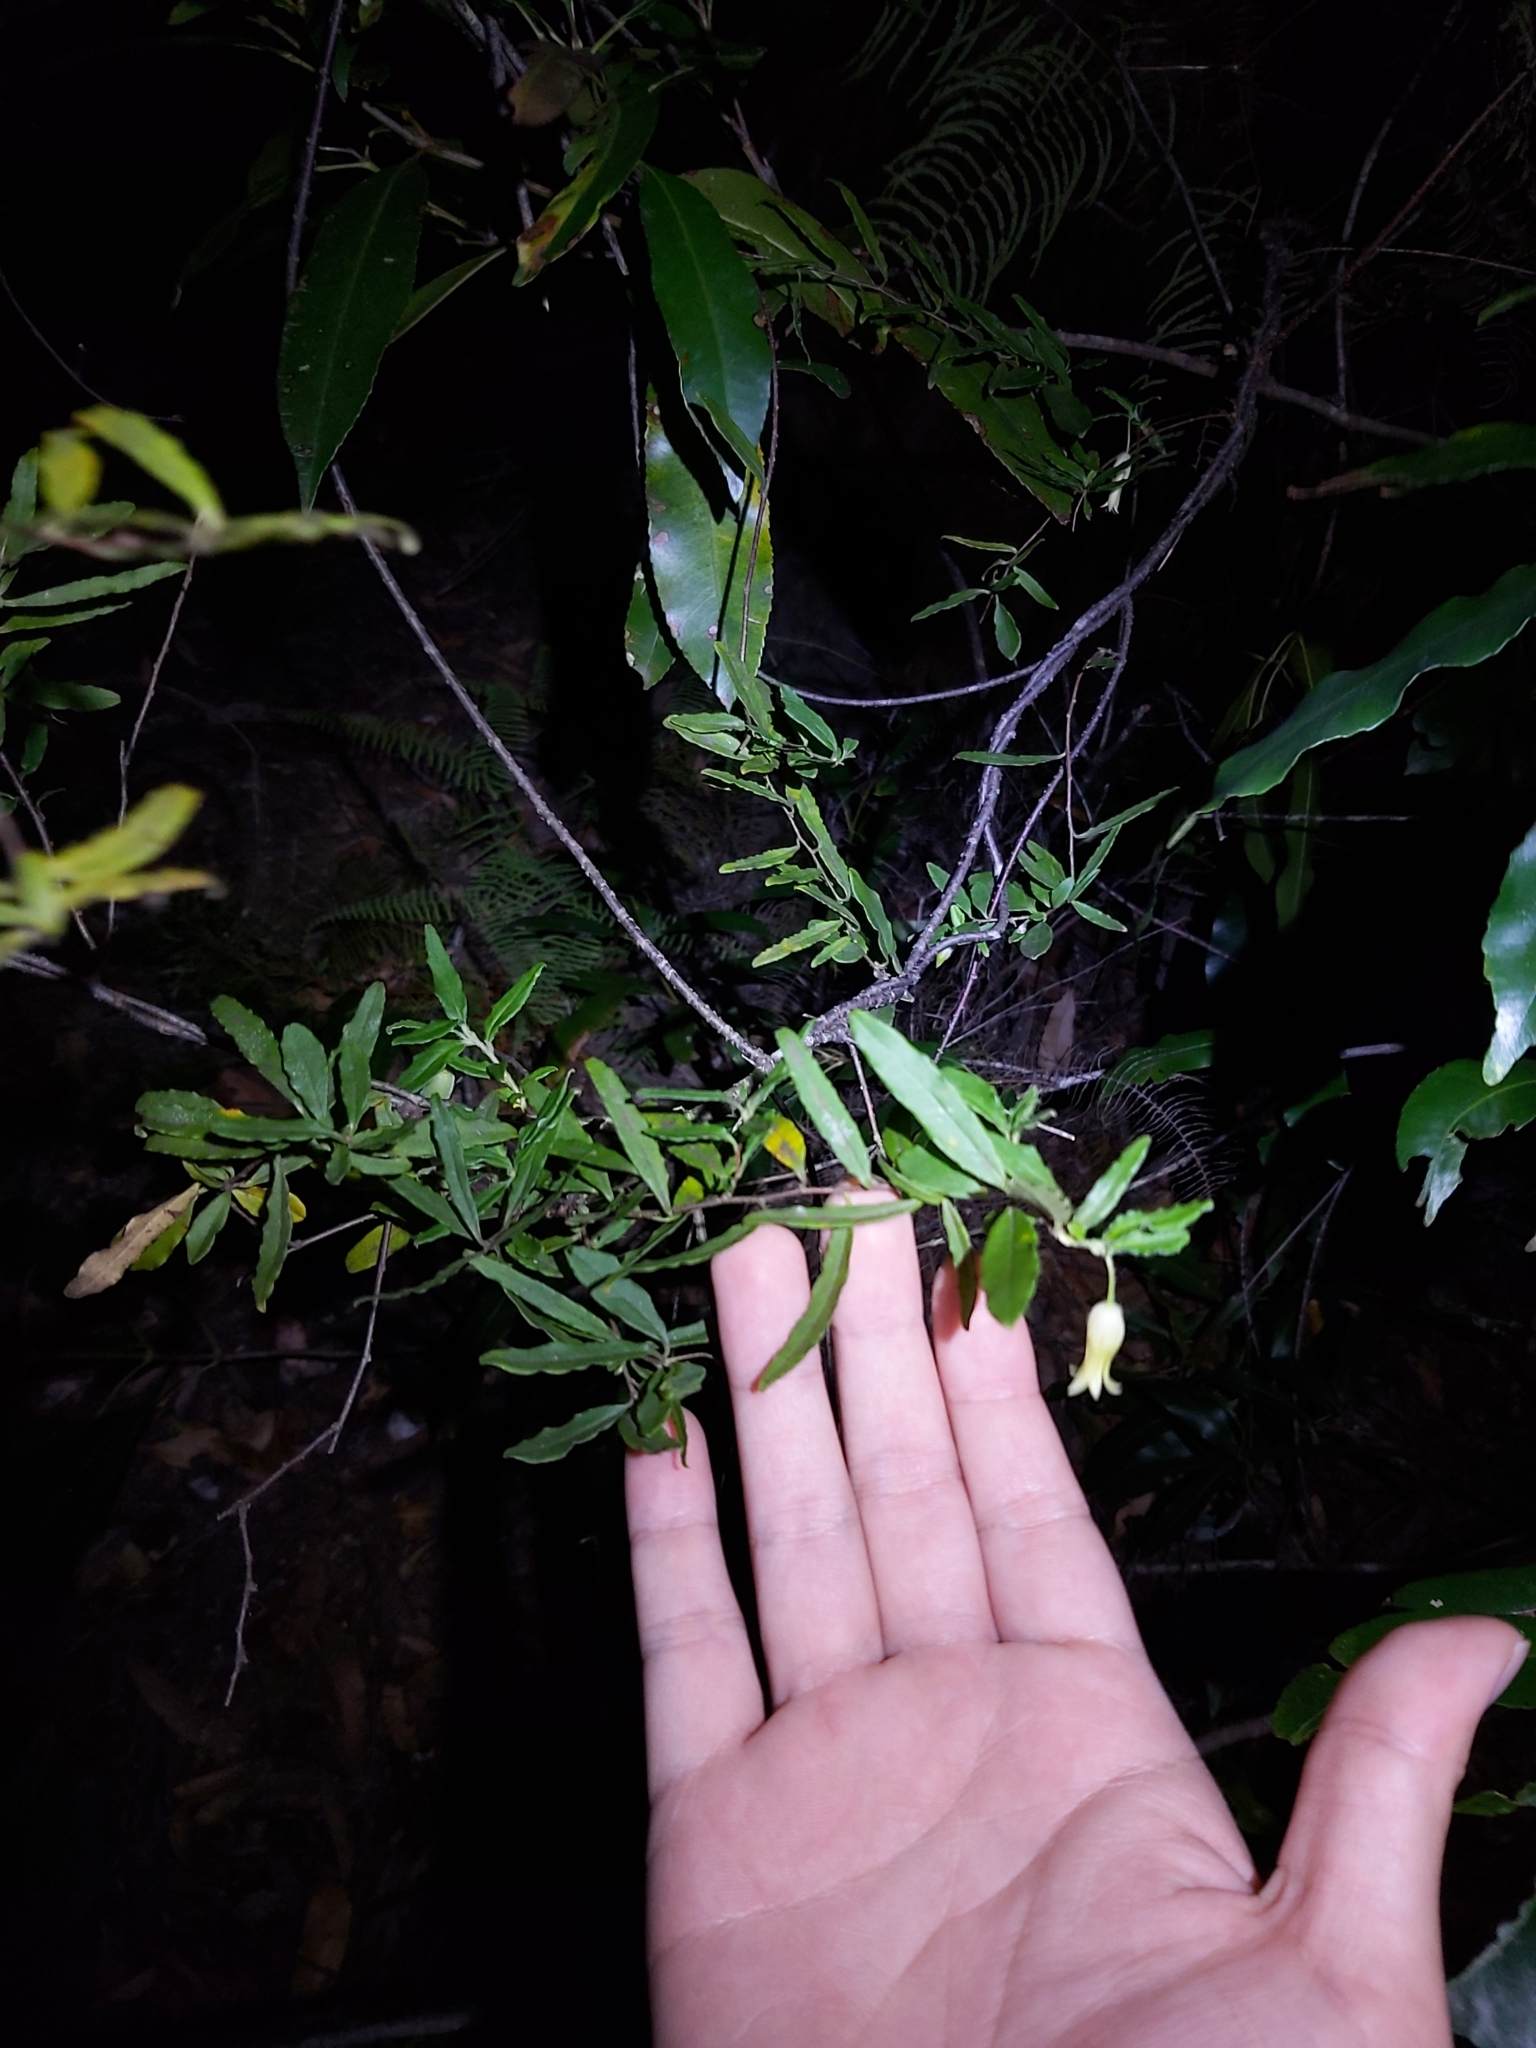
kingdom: Plantae
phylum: Tracheophyta
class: Magnoliopsida
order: Apiales
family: Pittosporaceae
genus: Billardiera
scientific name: Billardiera scandens
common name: Apple-berry
